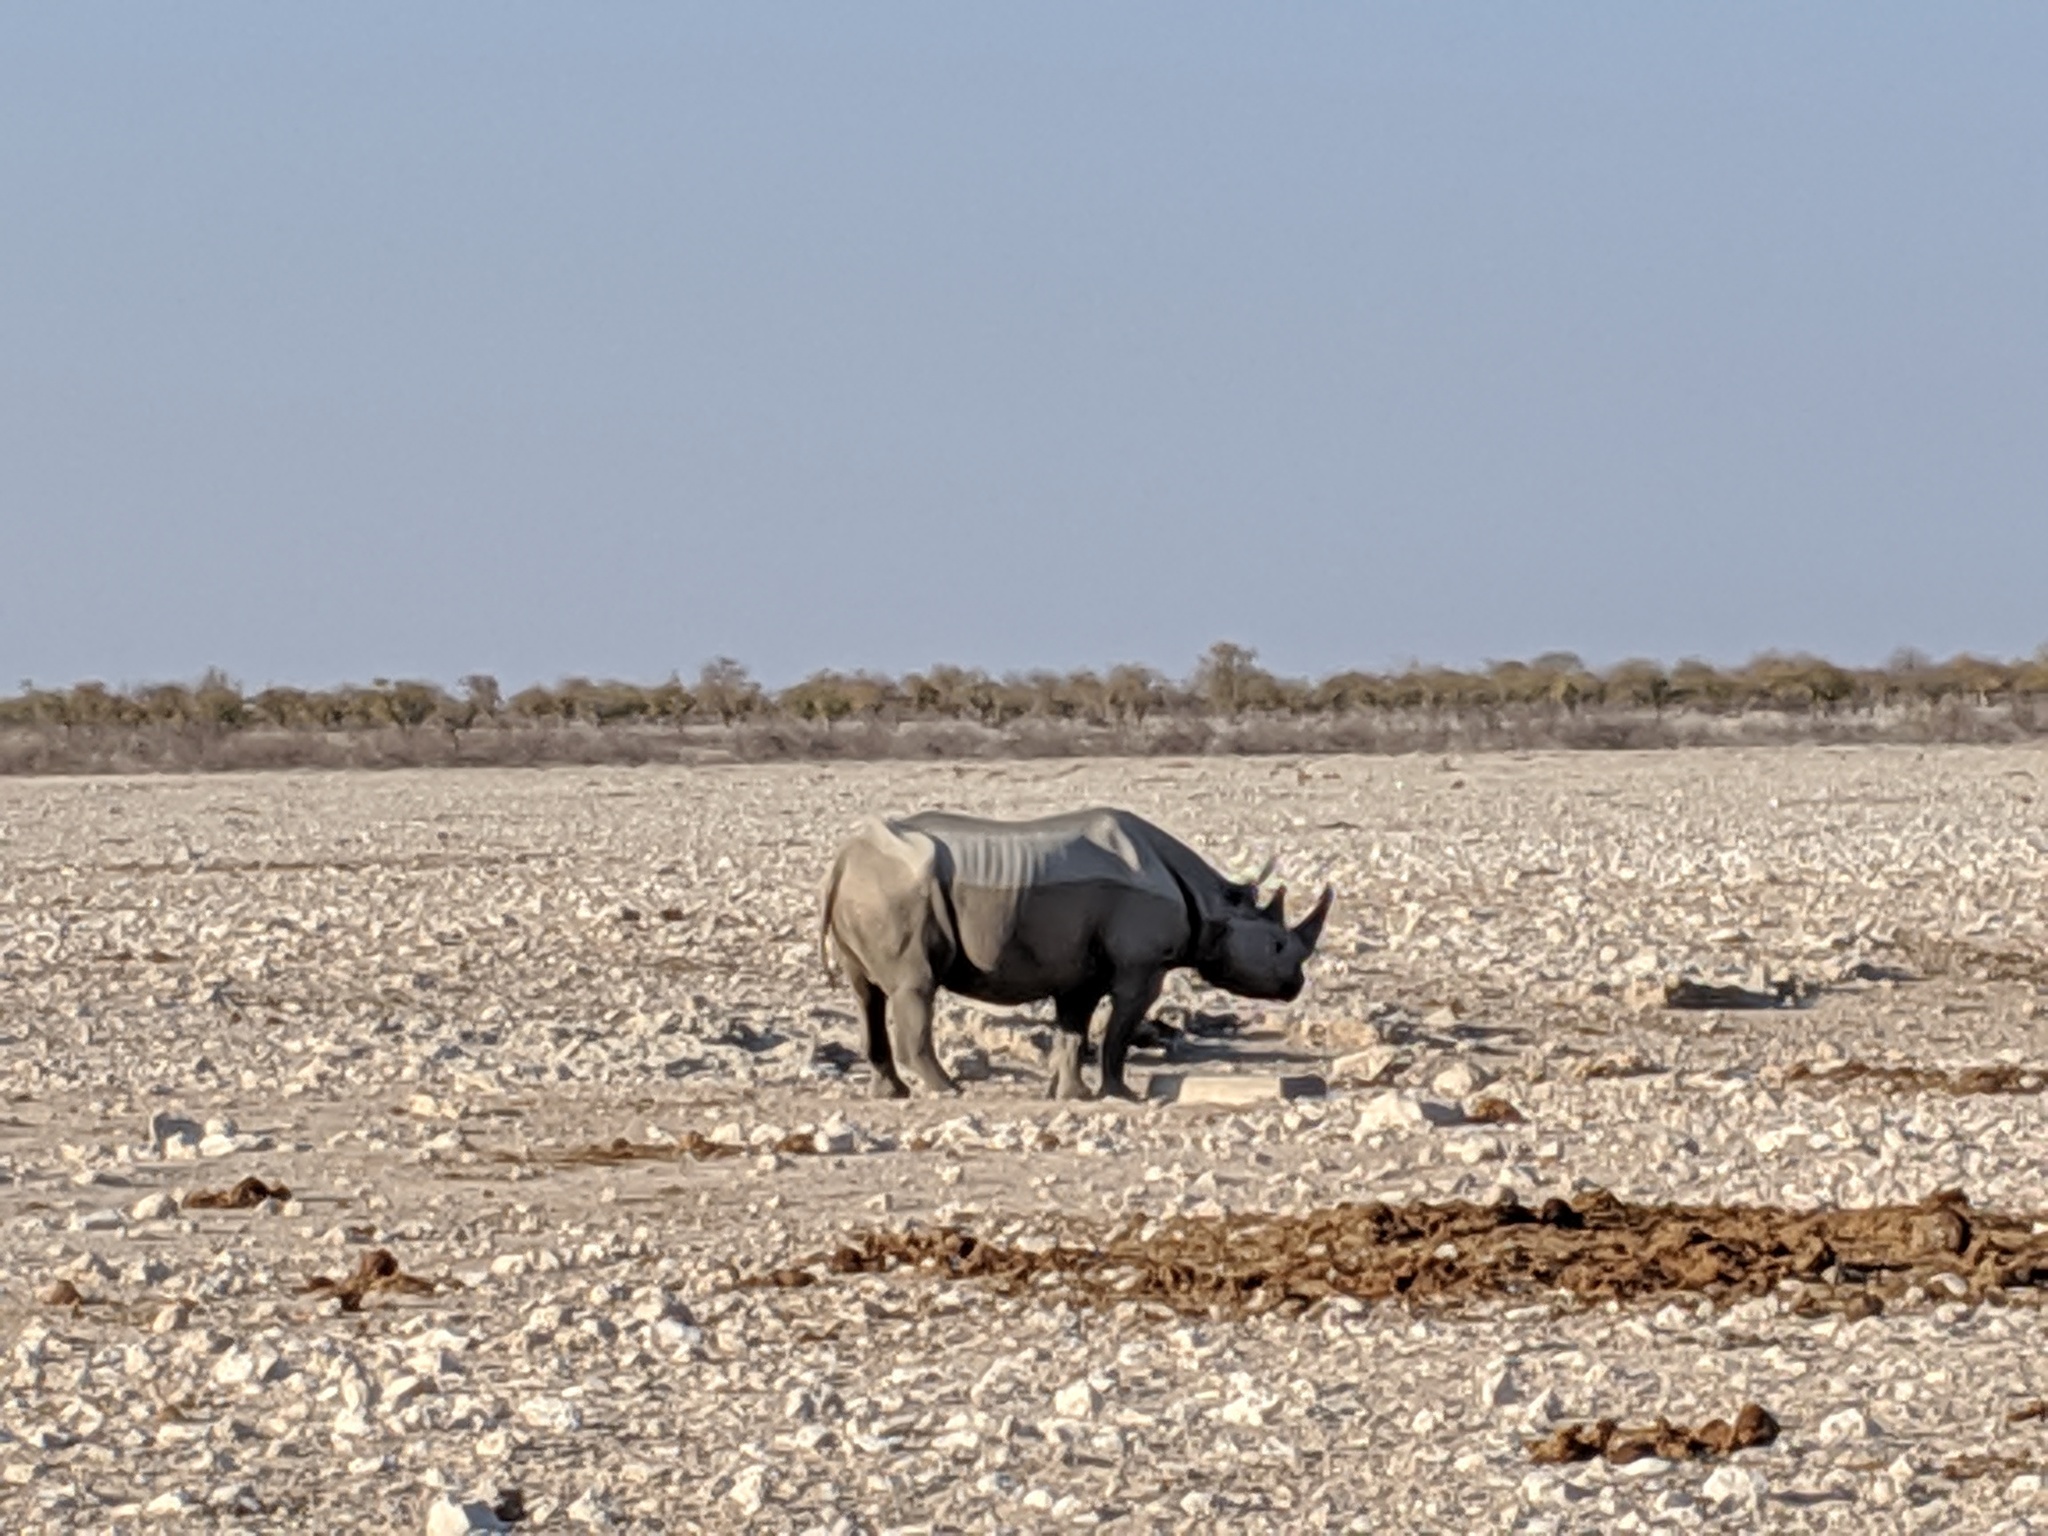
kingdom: Animalia
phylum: Chordata
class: Mammalia
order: Perissodactyla
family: Rhinocerotidae
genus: Diceros
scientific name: Diceros bicornis
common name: Black rhinoceros
